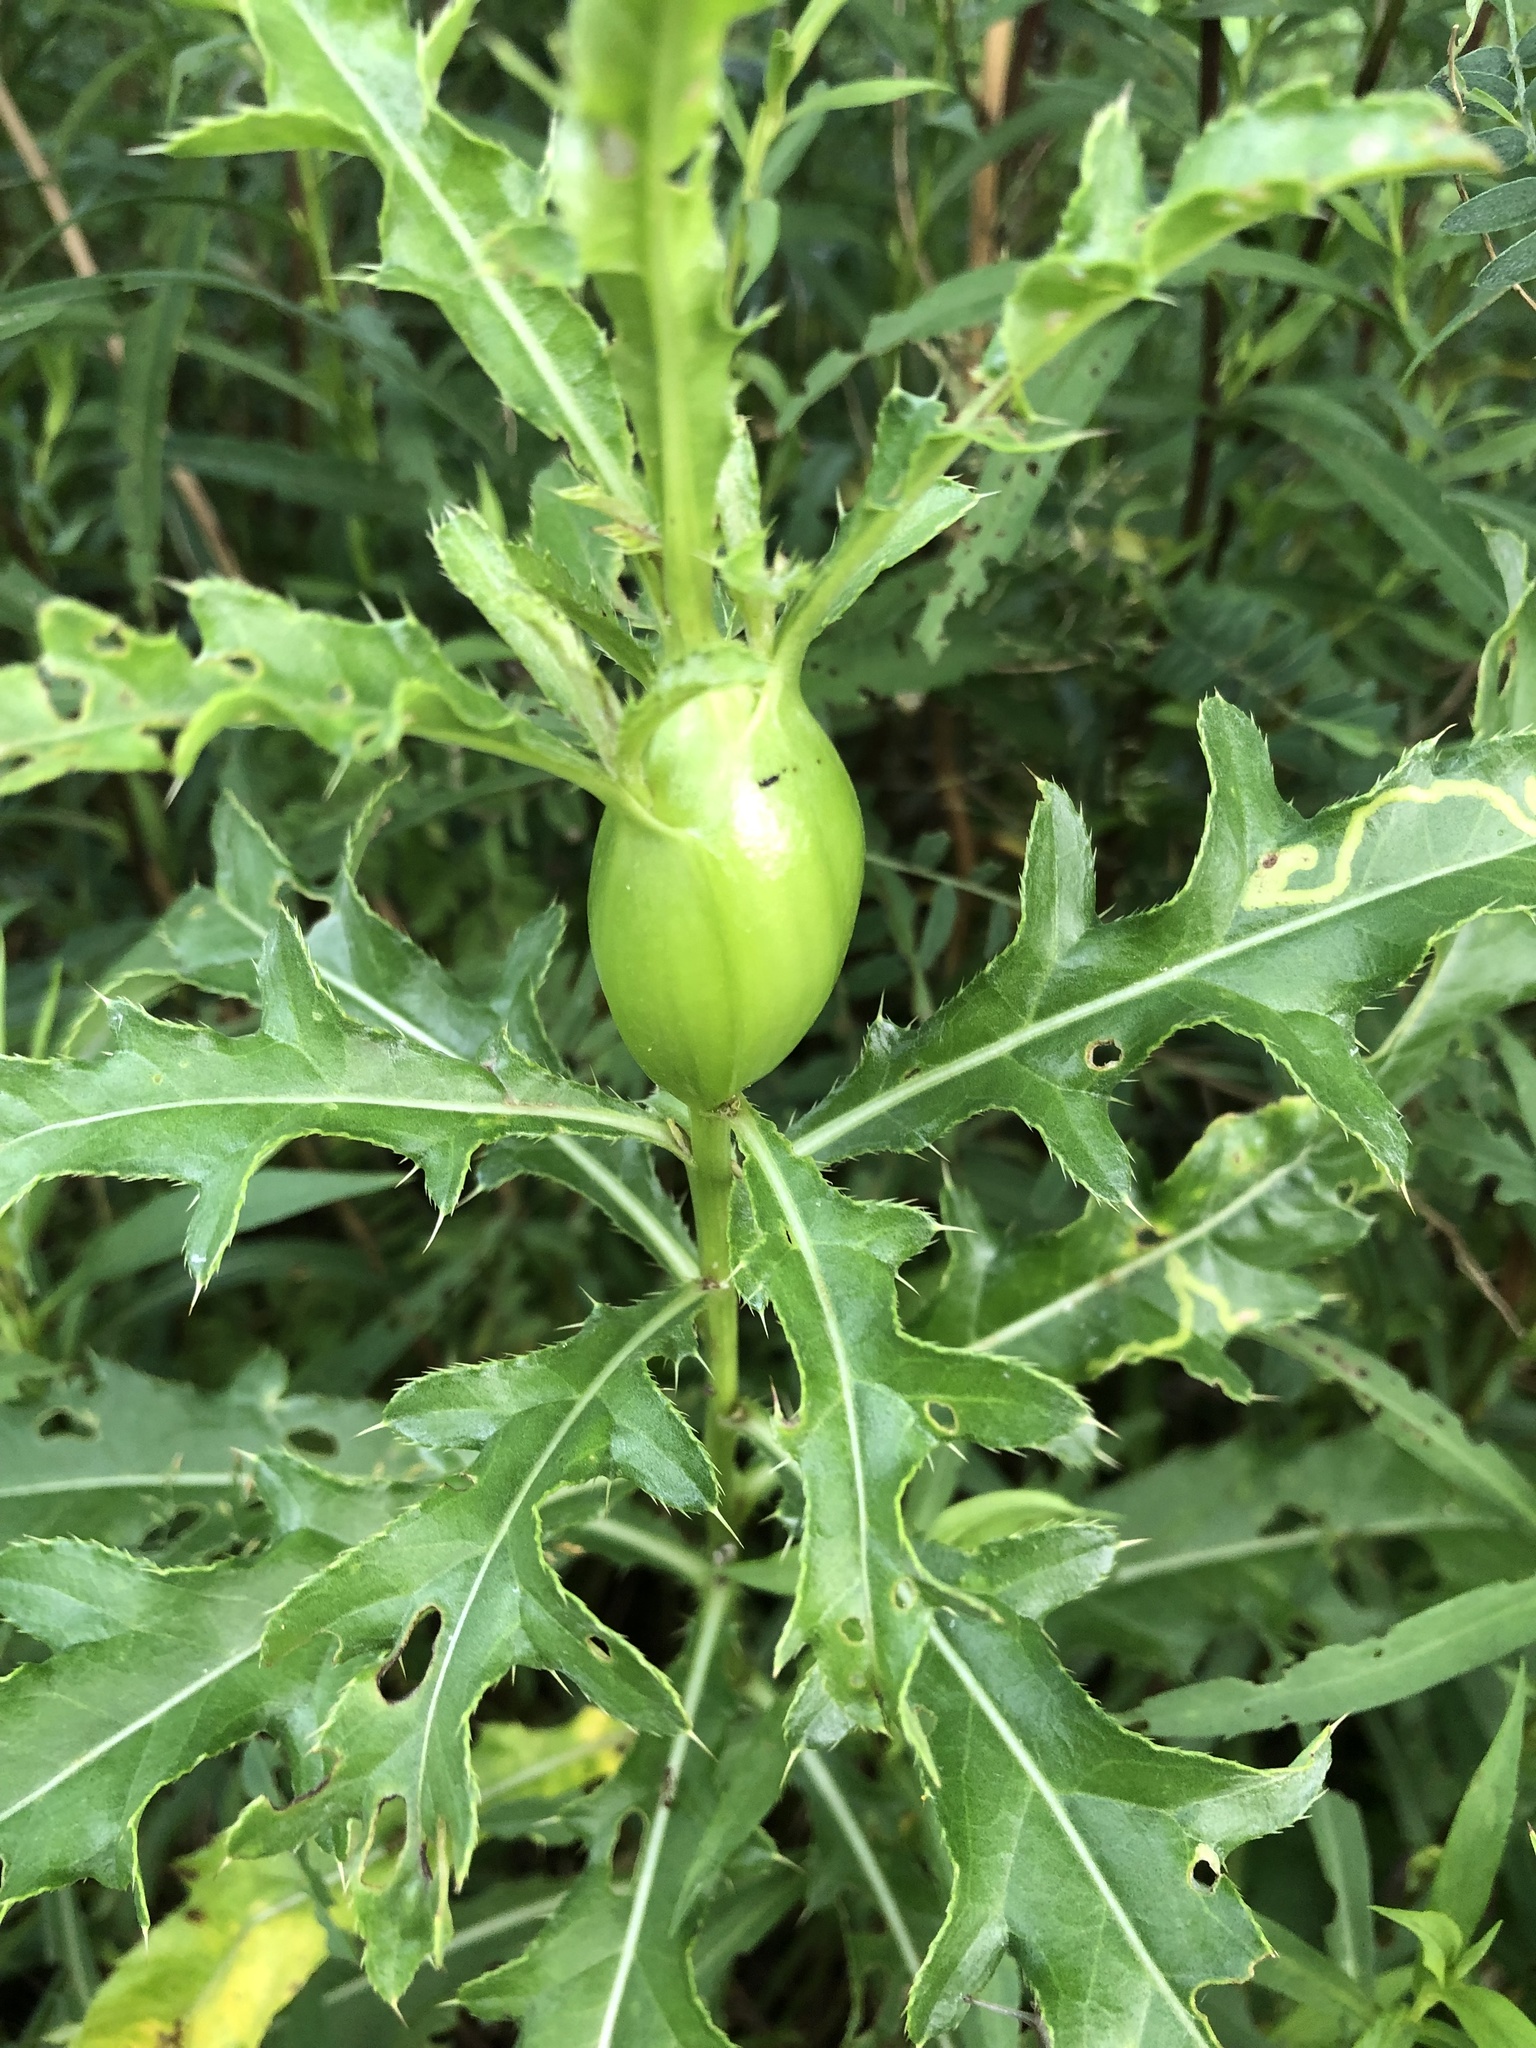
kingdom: Animalia
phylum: Arthropoda
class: Insecta
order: Diptera
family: Tephritidae
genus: Urophora
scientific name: Urophora cardui
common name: Fruit fly
